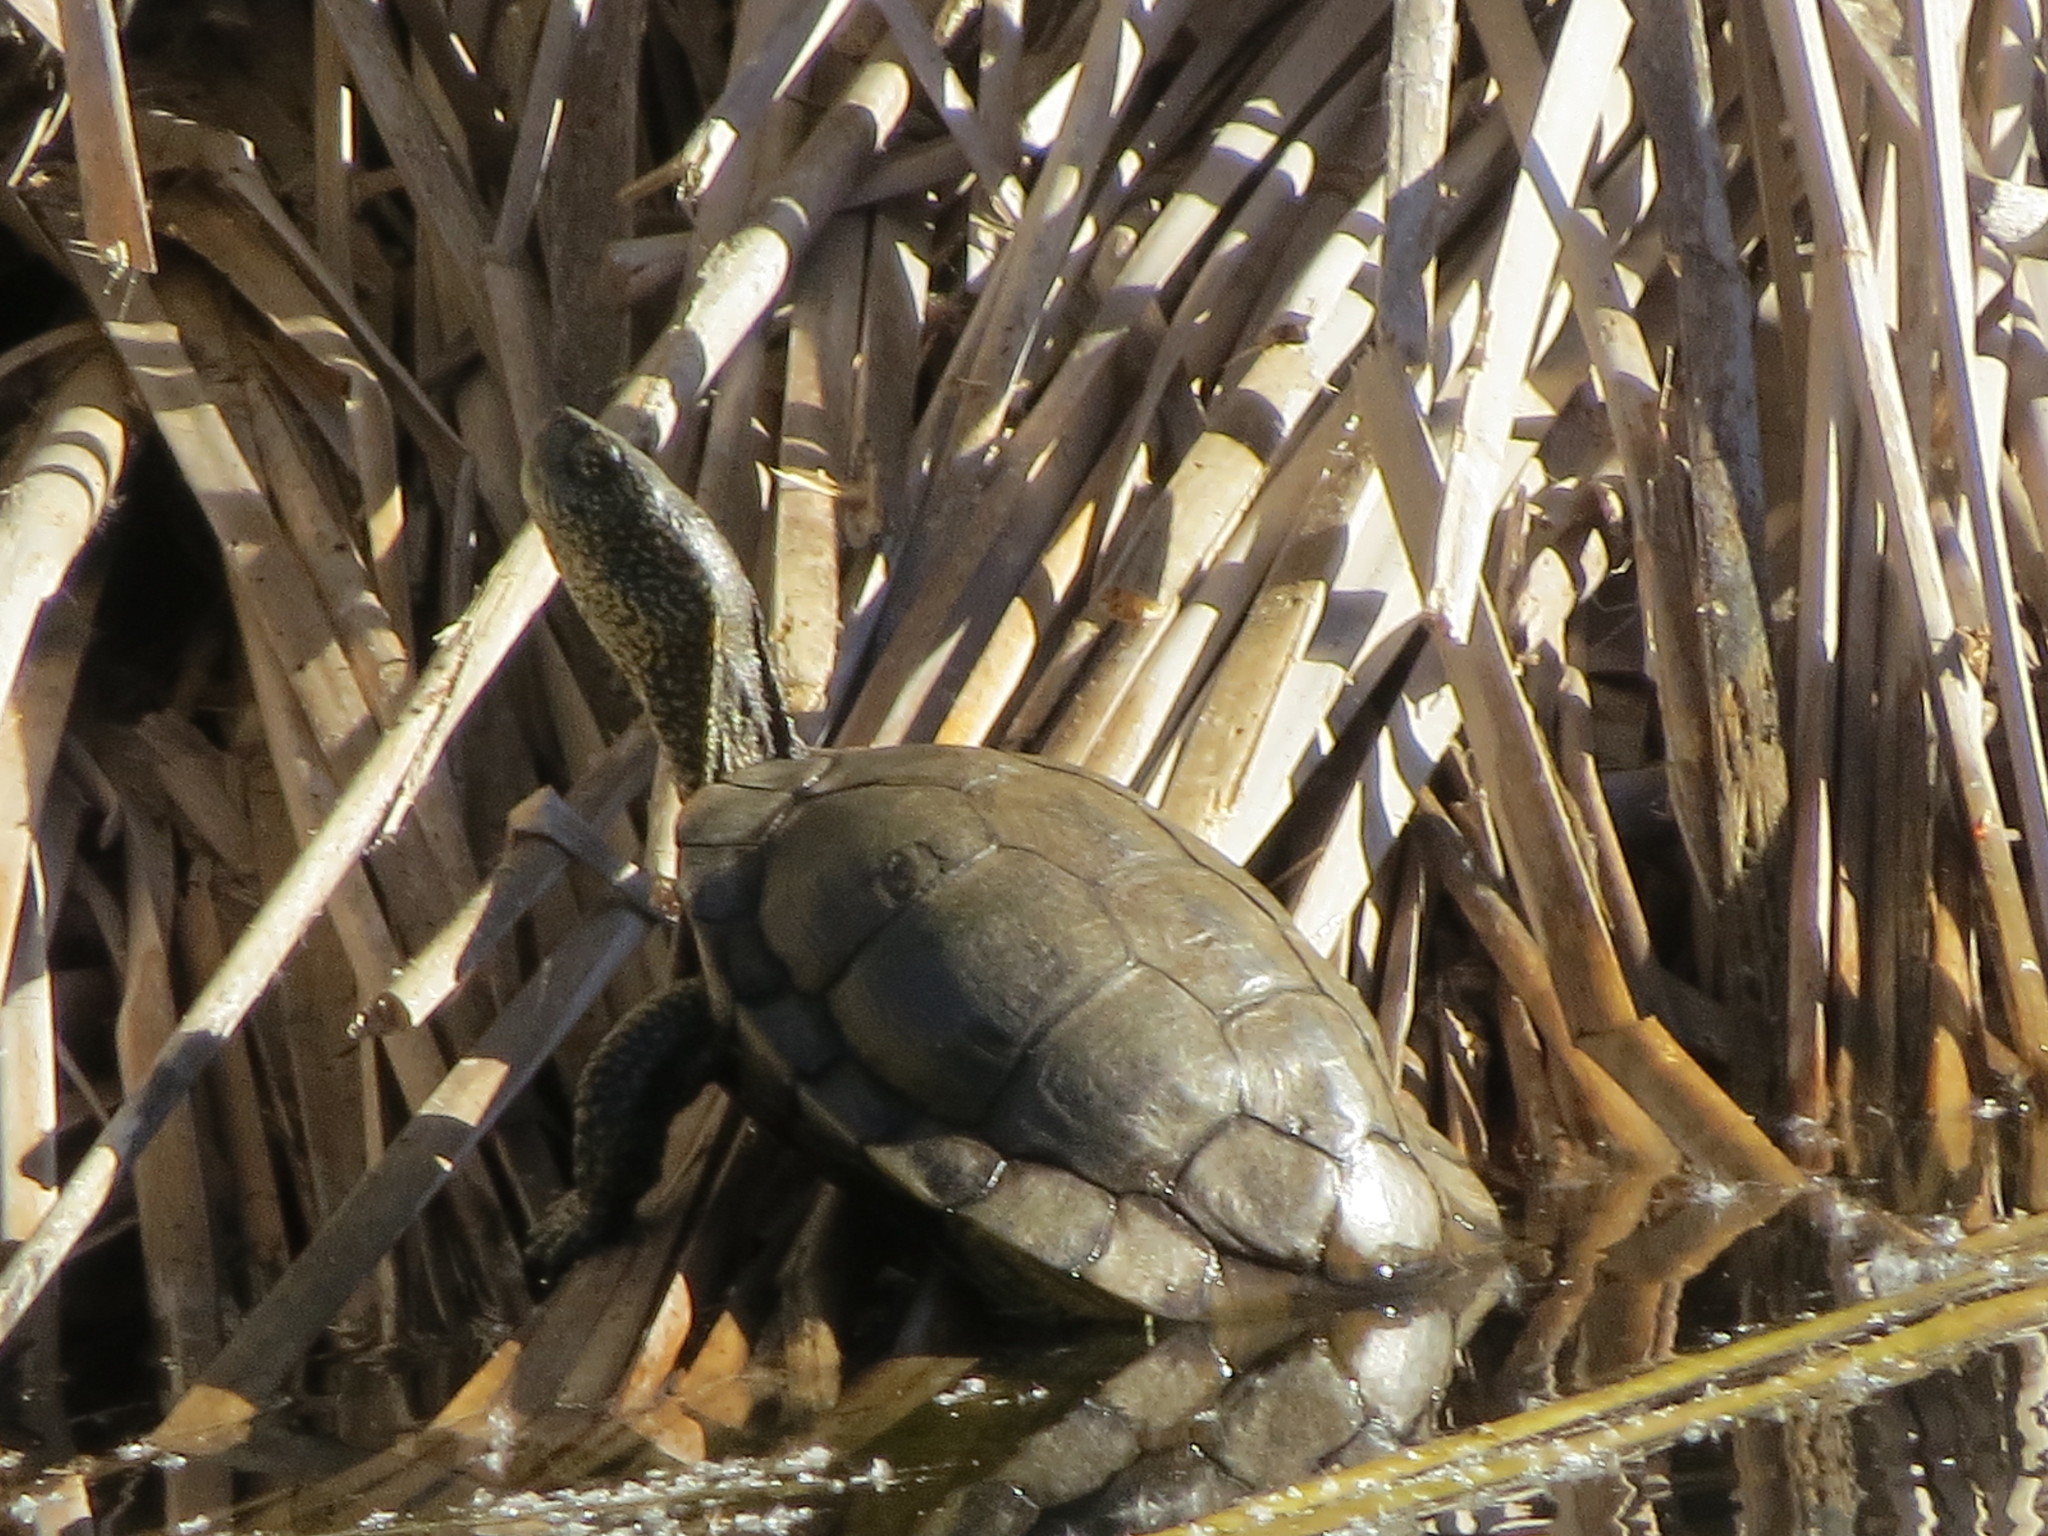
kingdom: Animalia
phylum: Chordata
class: Testudines
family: Emydidae
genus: Actinemys
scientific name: Actinemys marmorata
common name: Western pond turtle
